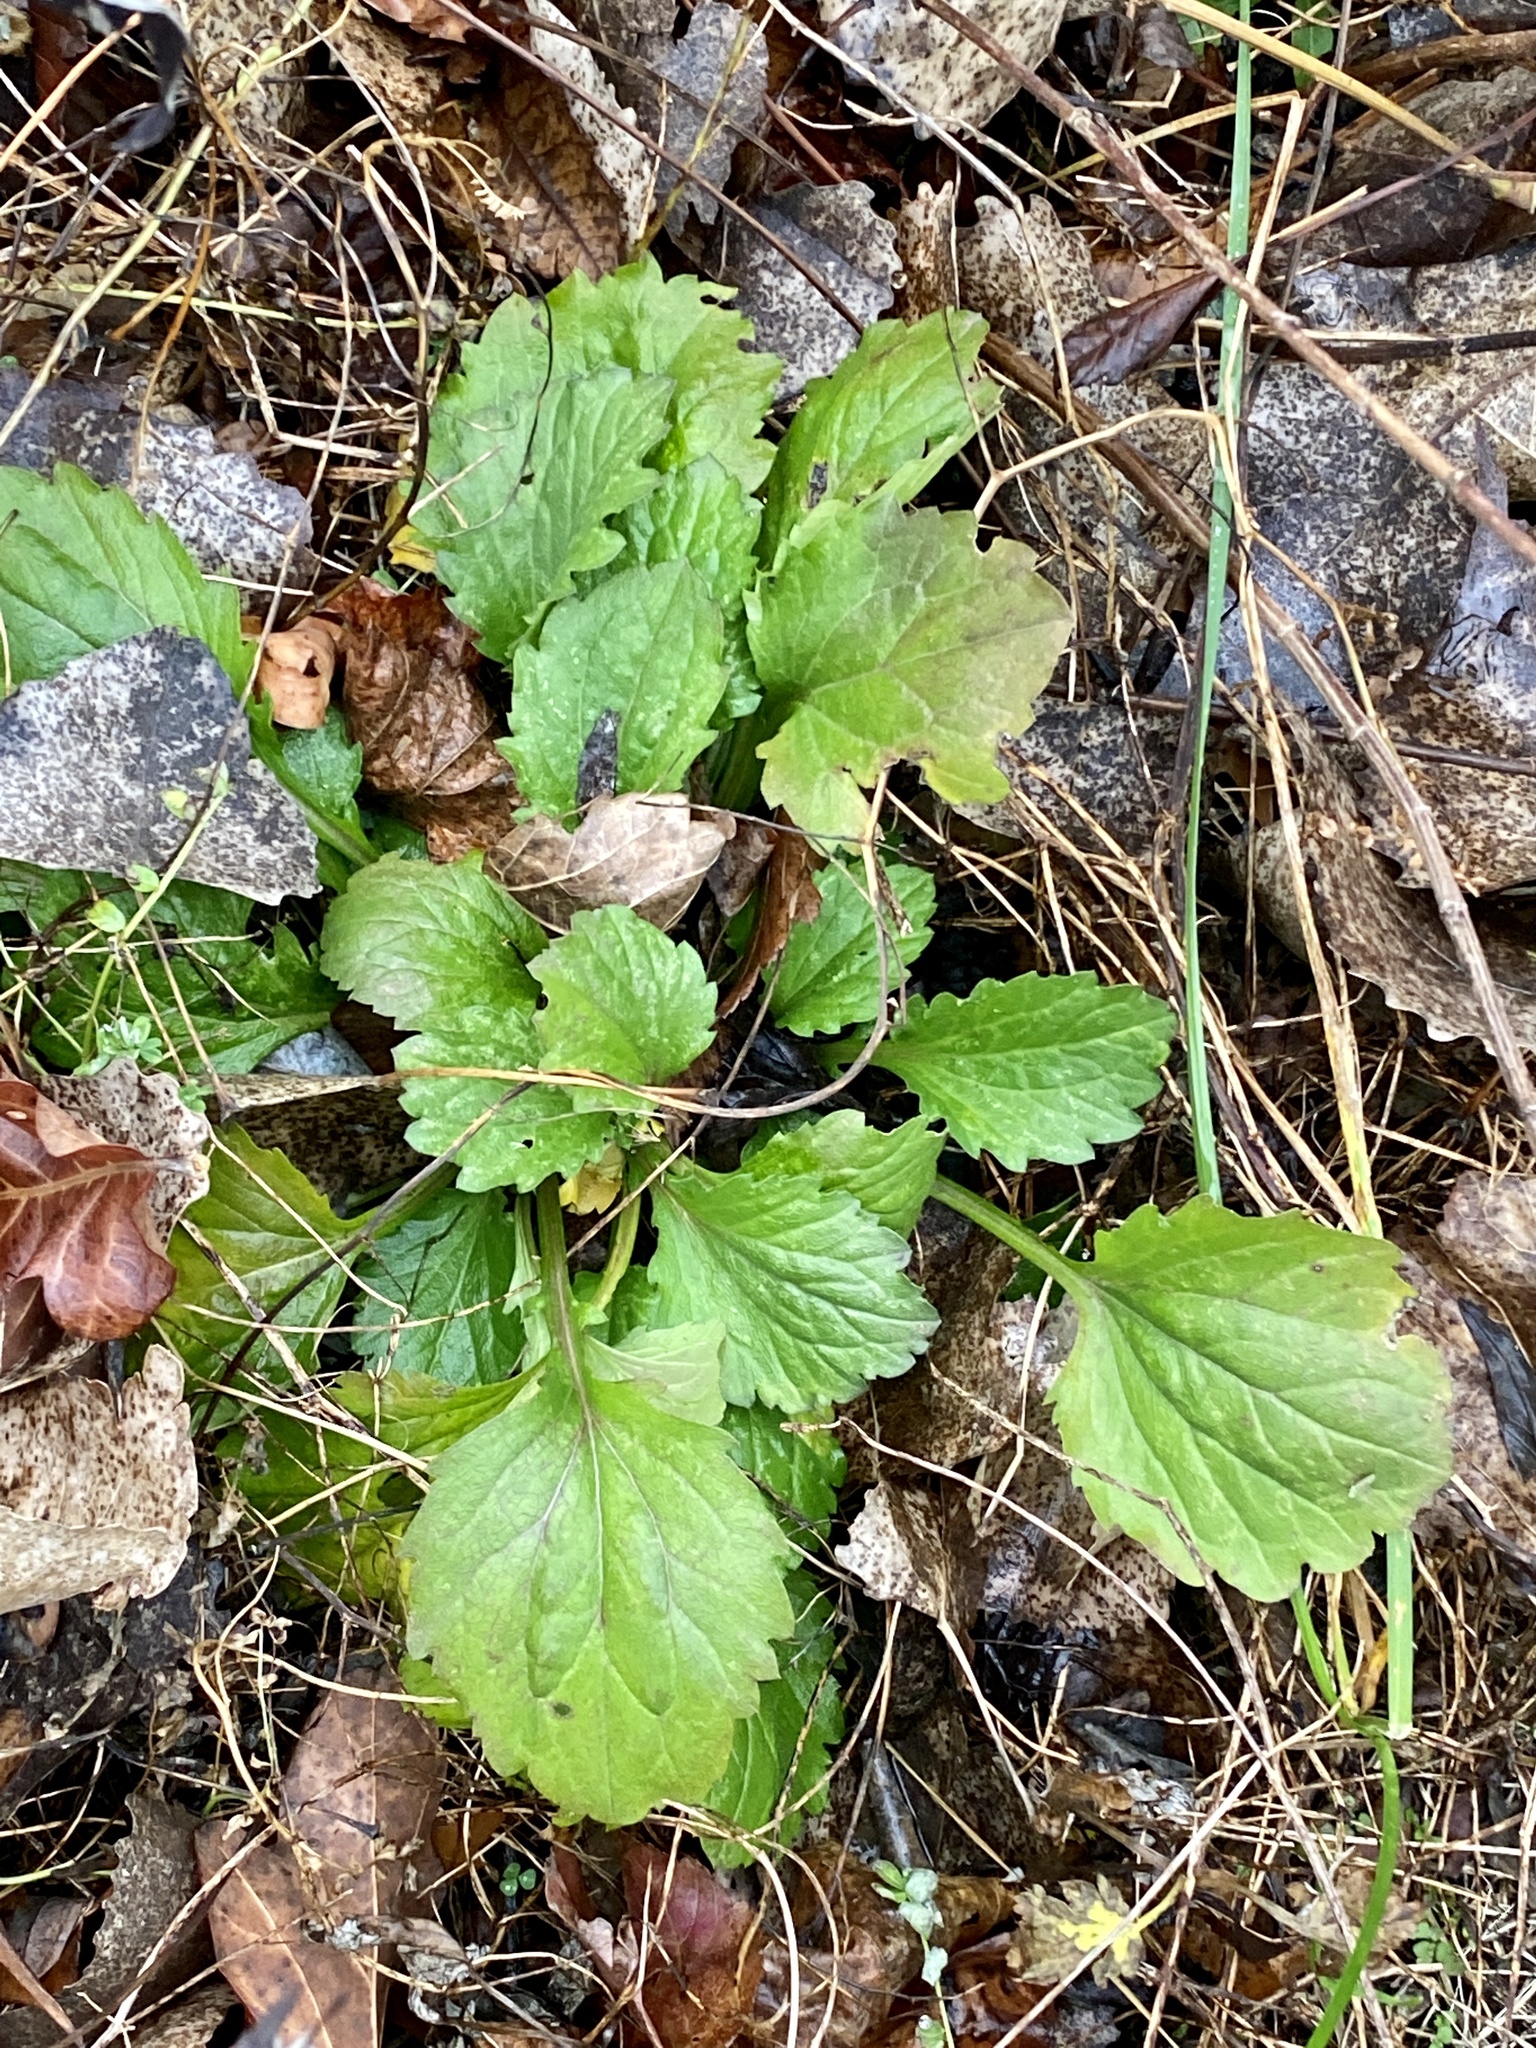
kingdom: Plantae
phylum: Tracheophyta
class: Magnoliopsida
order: Asterales
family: Asteraceae
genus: Erigeron
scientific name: Erigeron annuus
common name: Tall fleabane
